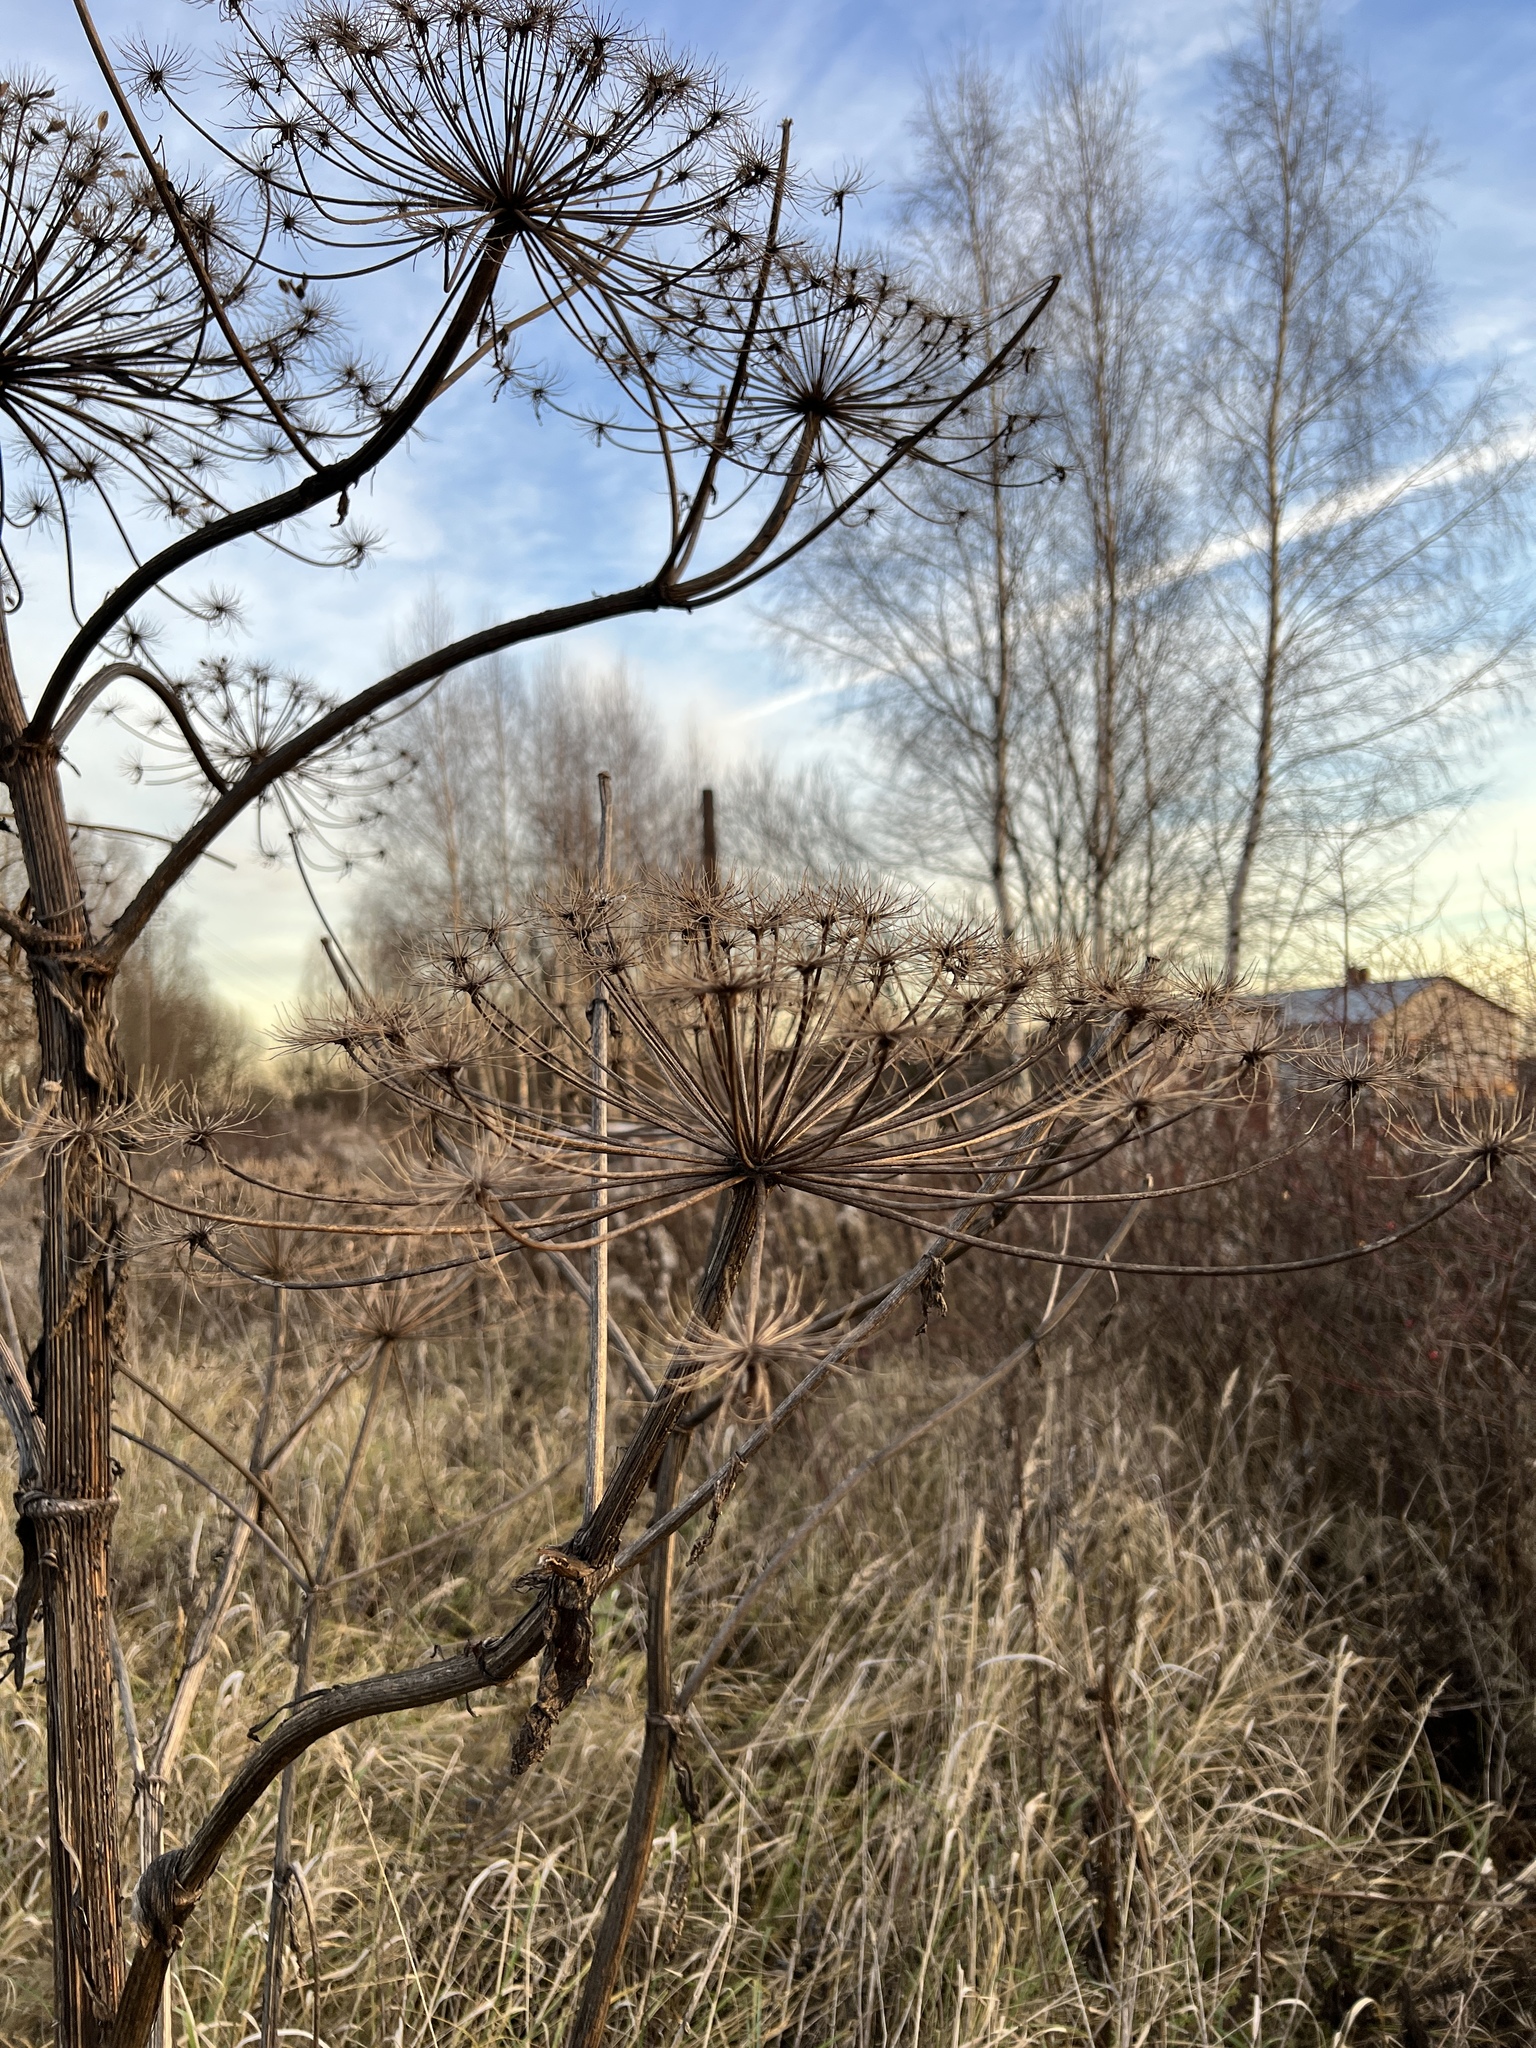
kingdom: Plantae
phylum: Tracheophyta
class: Magnoliopsida
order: Apiales
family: Apiaceae
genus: Heracleum
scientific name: Heracleum sosnowskyi
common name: Sosnowsky's hogweed
